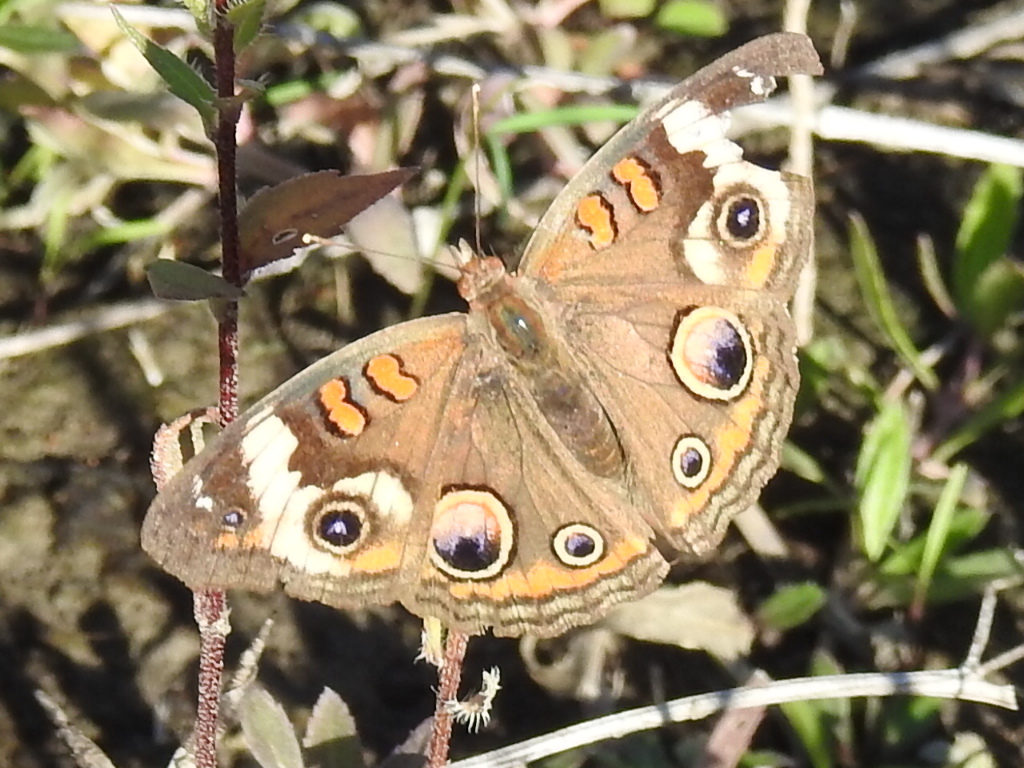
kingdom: Animalia
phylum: Arthropoda
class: Insecta
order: Lepidoptera
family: Nymphalidae
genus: Junonia
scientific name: Junonia coenia
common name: Common buckeye
